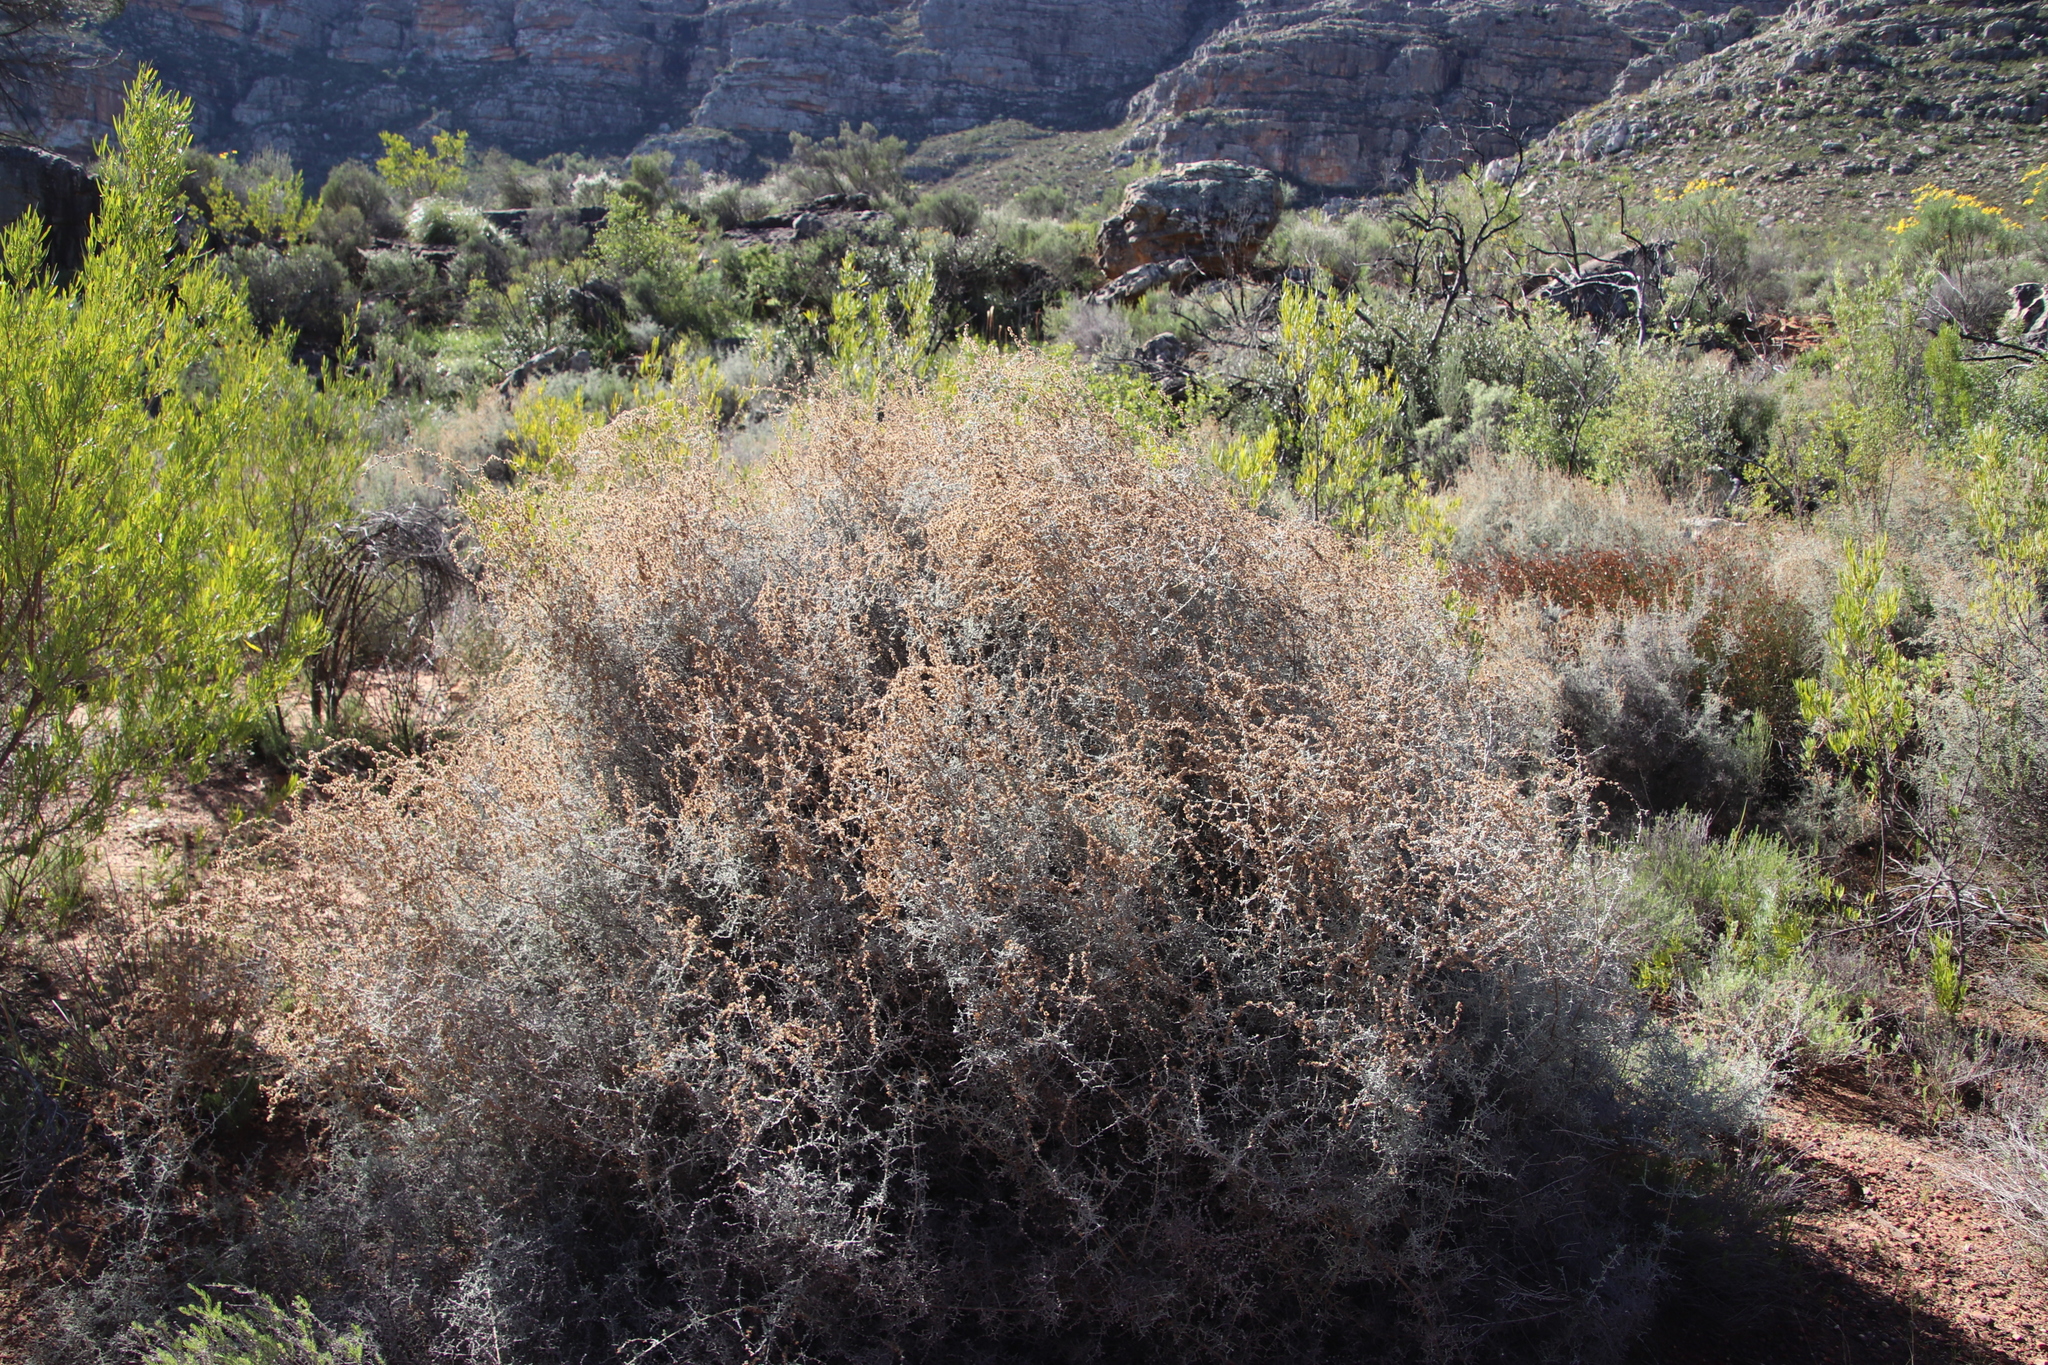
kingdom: Plantae
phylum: Tracheophyta
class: Magnoliopsida
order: Asterales
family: Asteraceae
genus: Seriphium
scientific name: Seriphium plumosum
